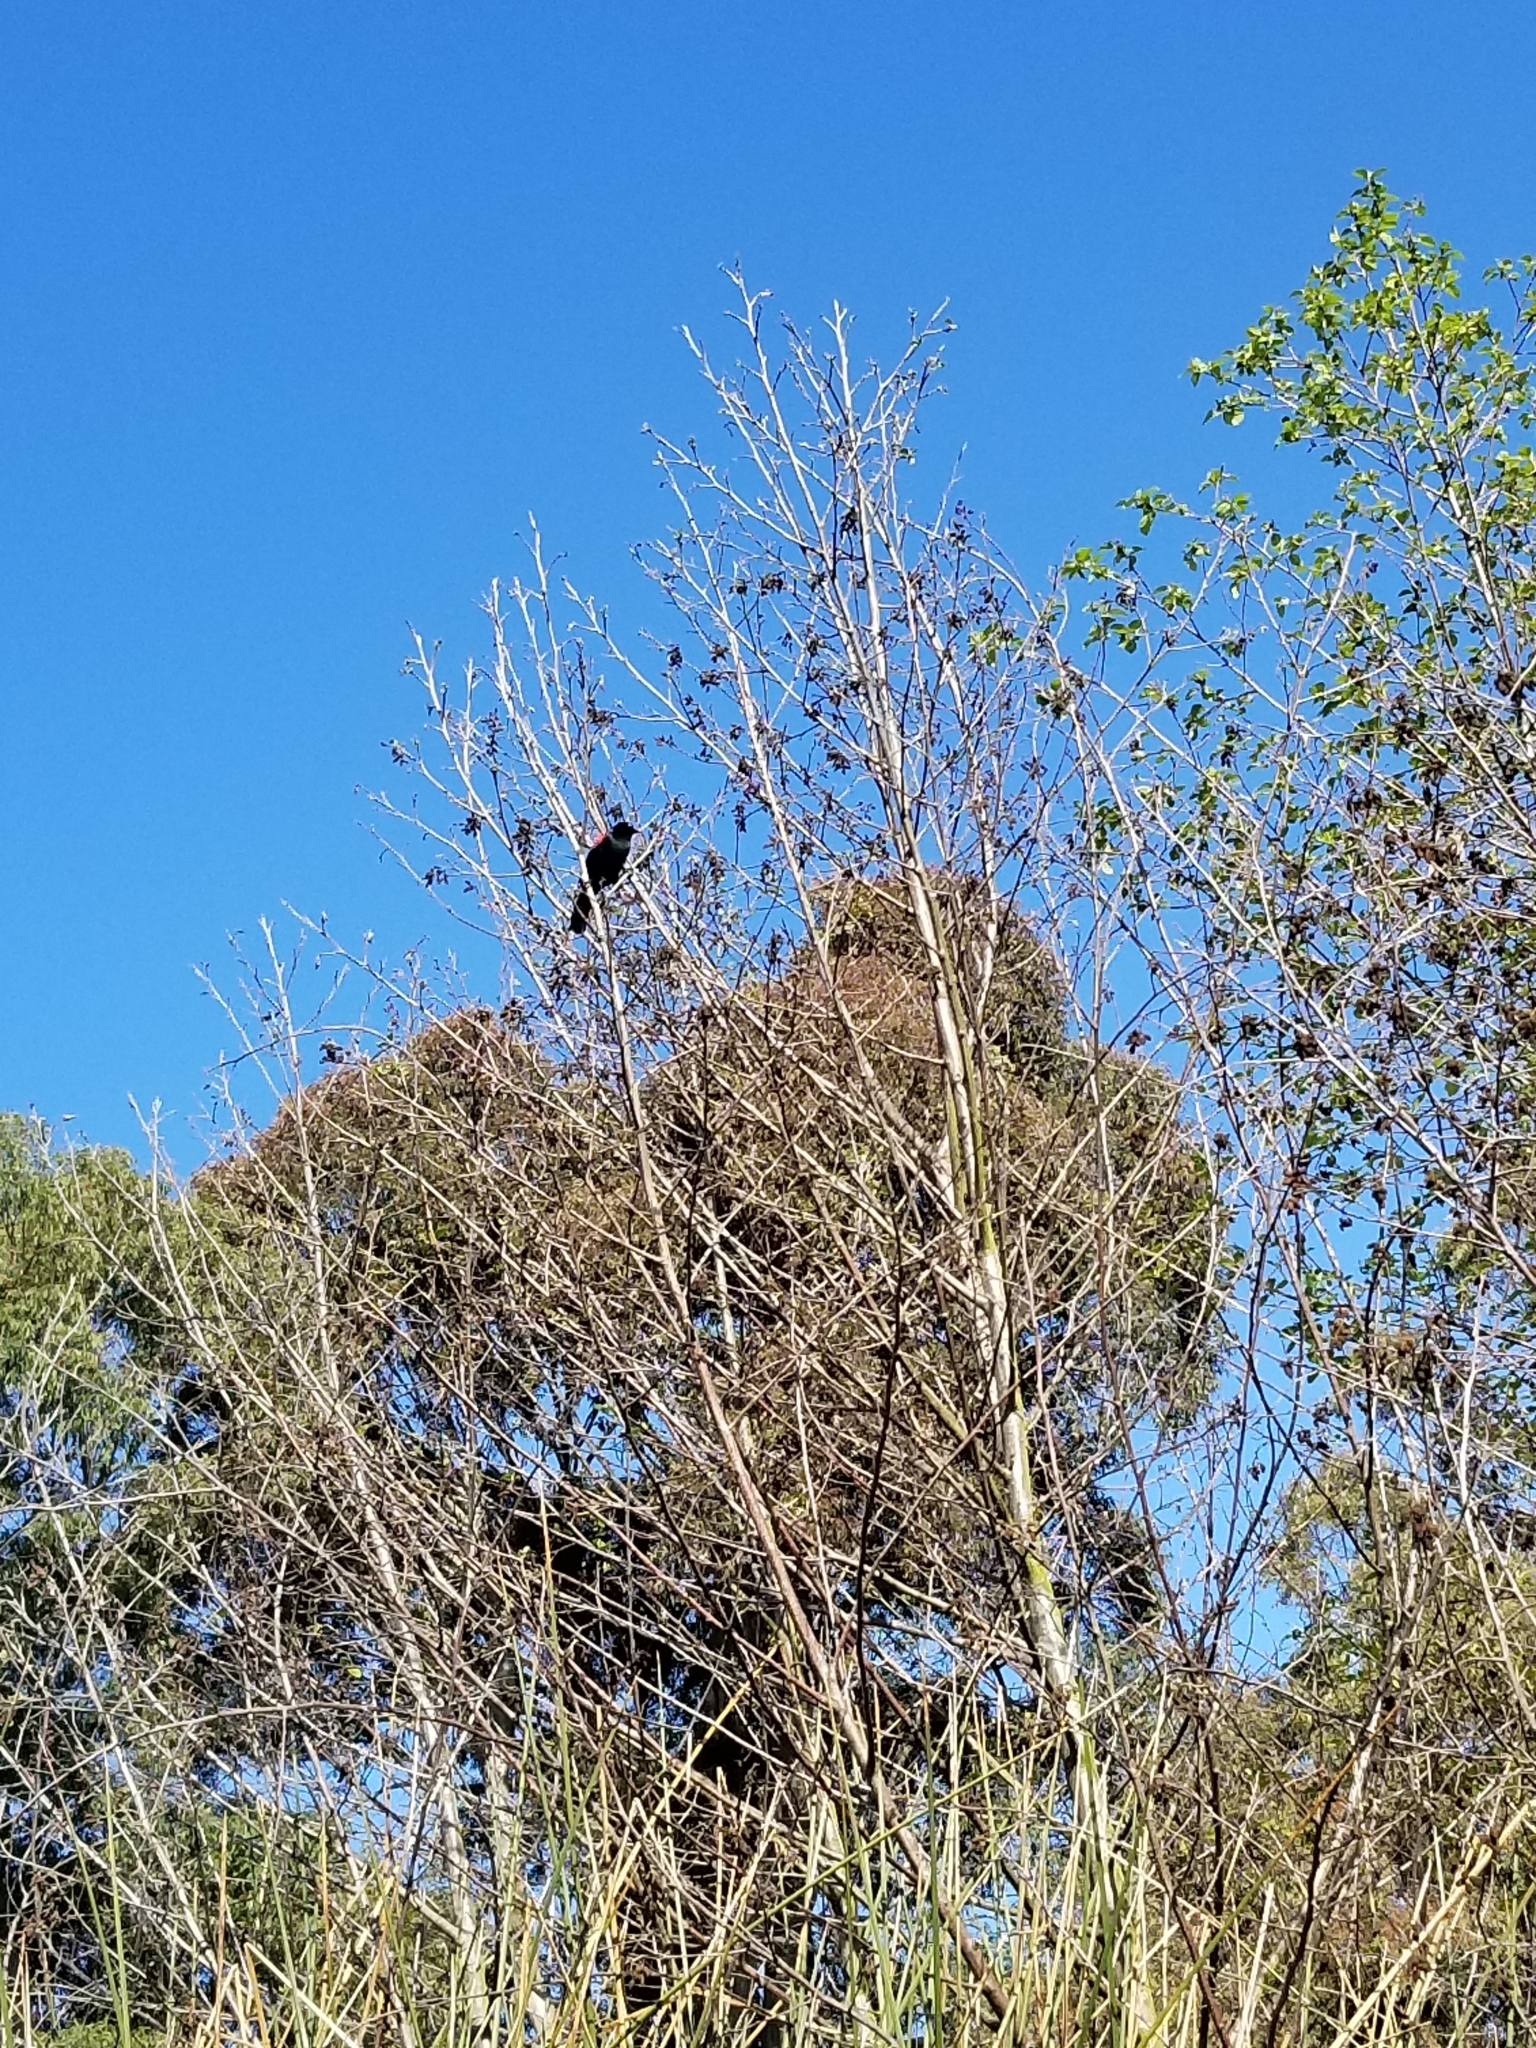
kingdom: Animalia
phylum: Chordata
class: Aves
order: Passeriformes
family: Icteridae
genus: Agelaius
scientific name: Agelaius phoeniceus
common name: Red-winged blackbird
